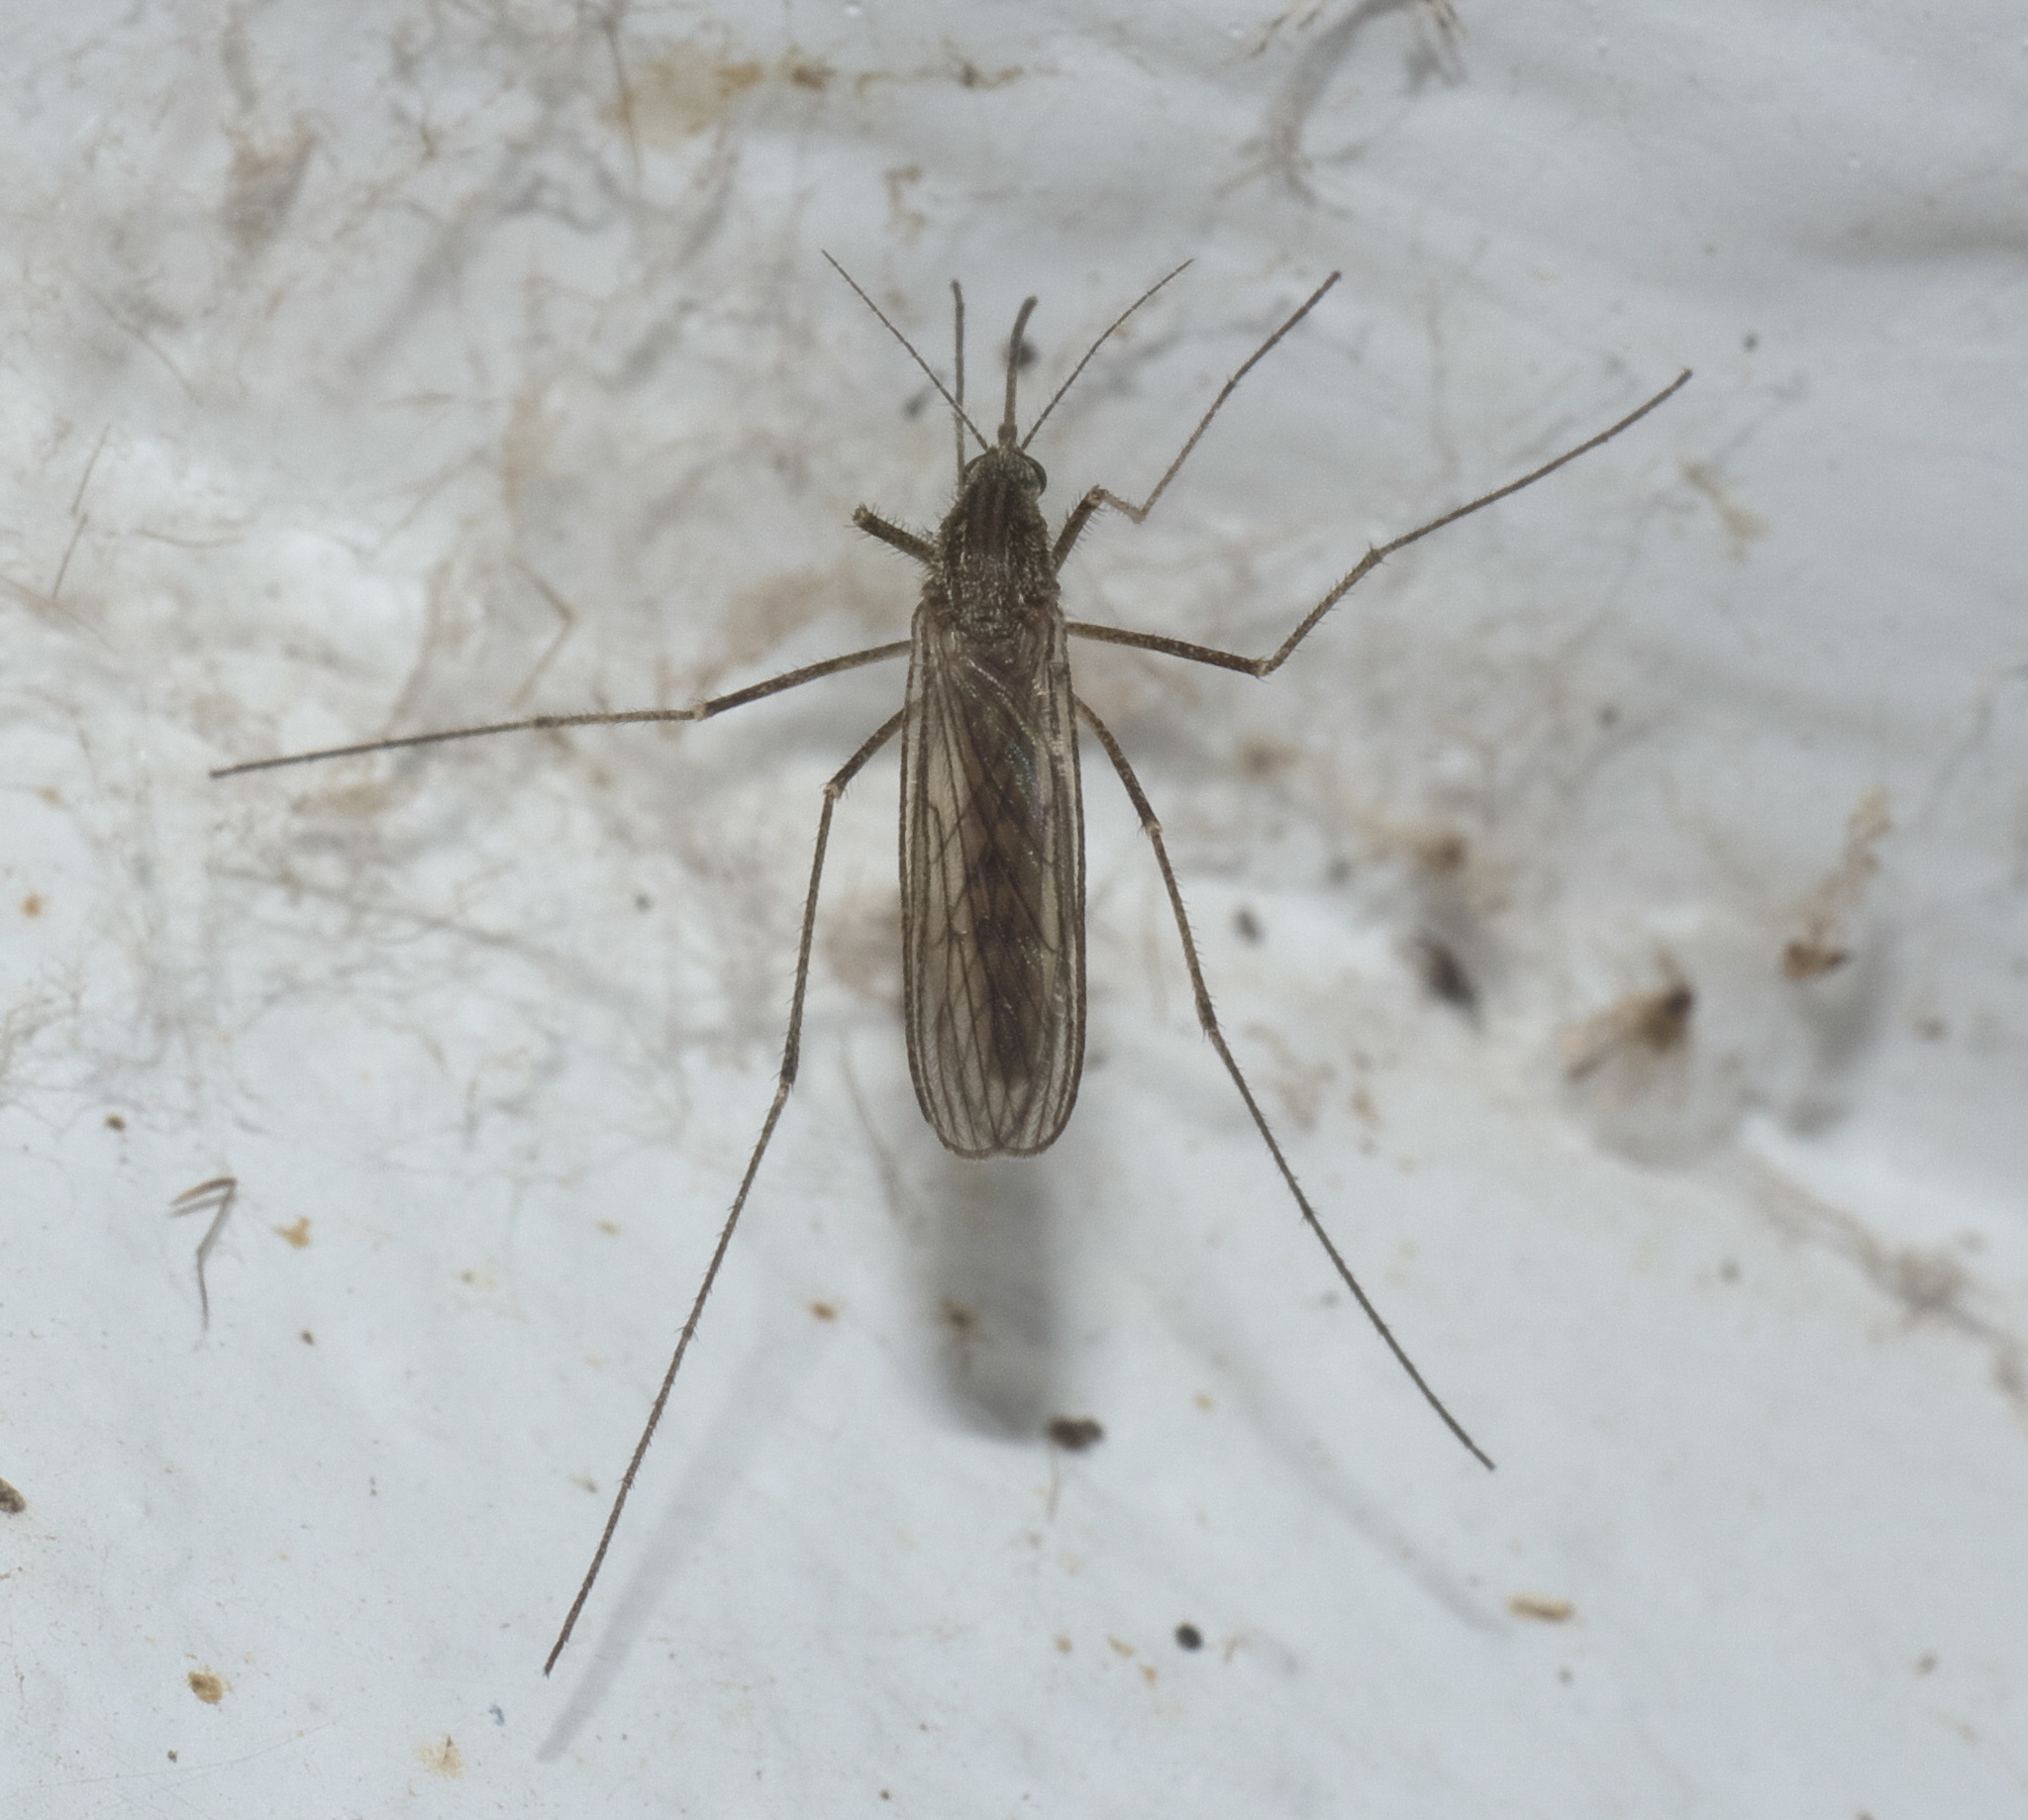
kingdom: Animalia
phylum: Arthropoda
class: Insecta
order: Diptera
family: Culicidae
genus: Culiseta
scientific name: Culiseta inornata
